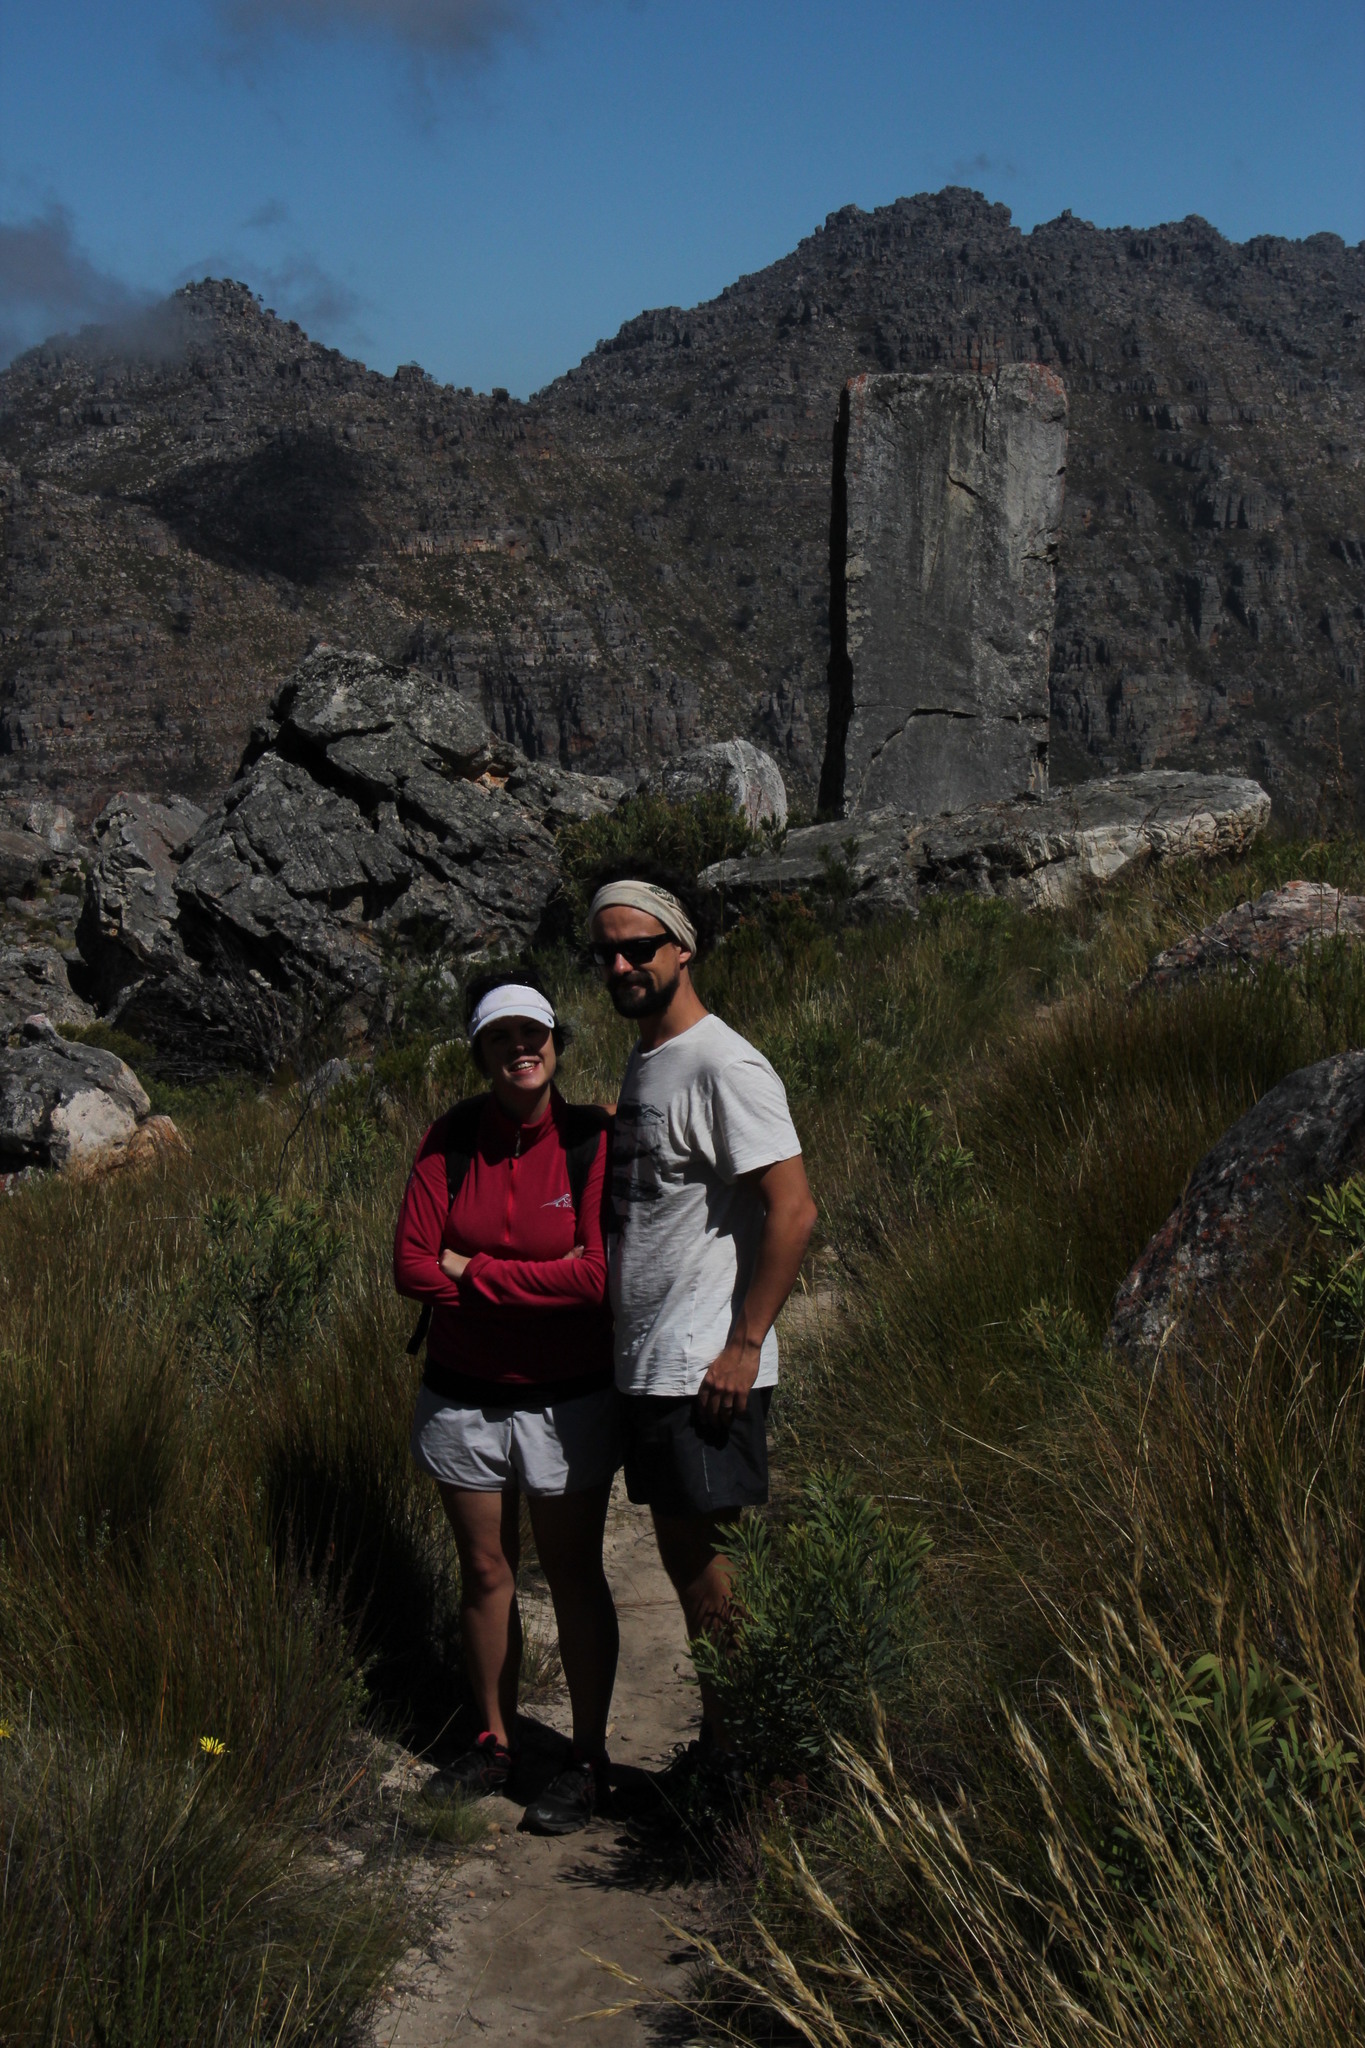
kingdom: Plantae
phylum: Tracheophyta
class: Magnoliopsida
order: Proteales
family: Proteaceae
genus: Protea
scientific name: Protea repens
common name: Sugarbush
